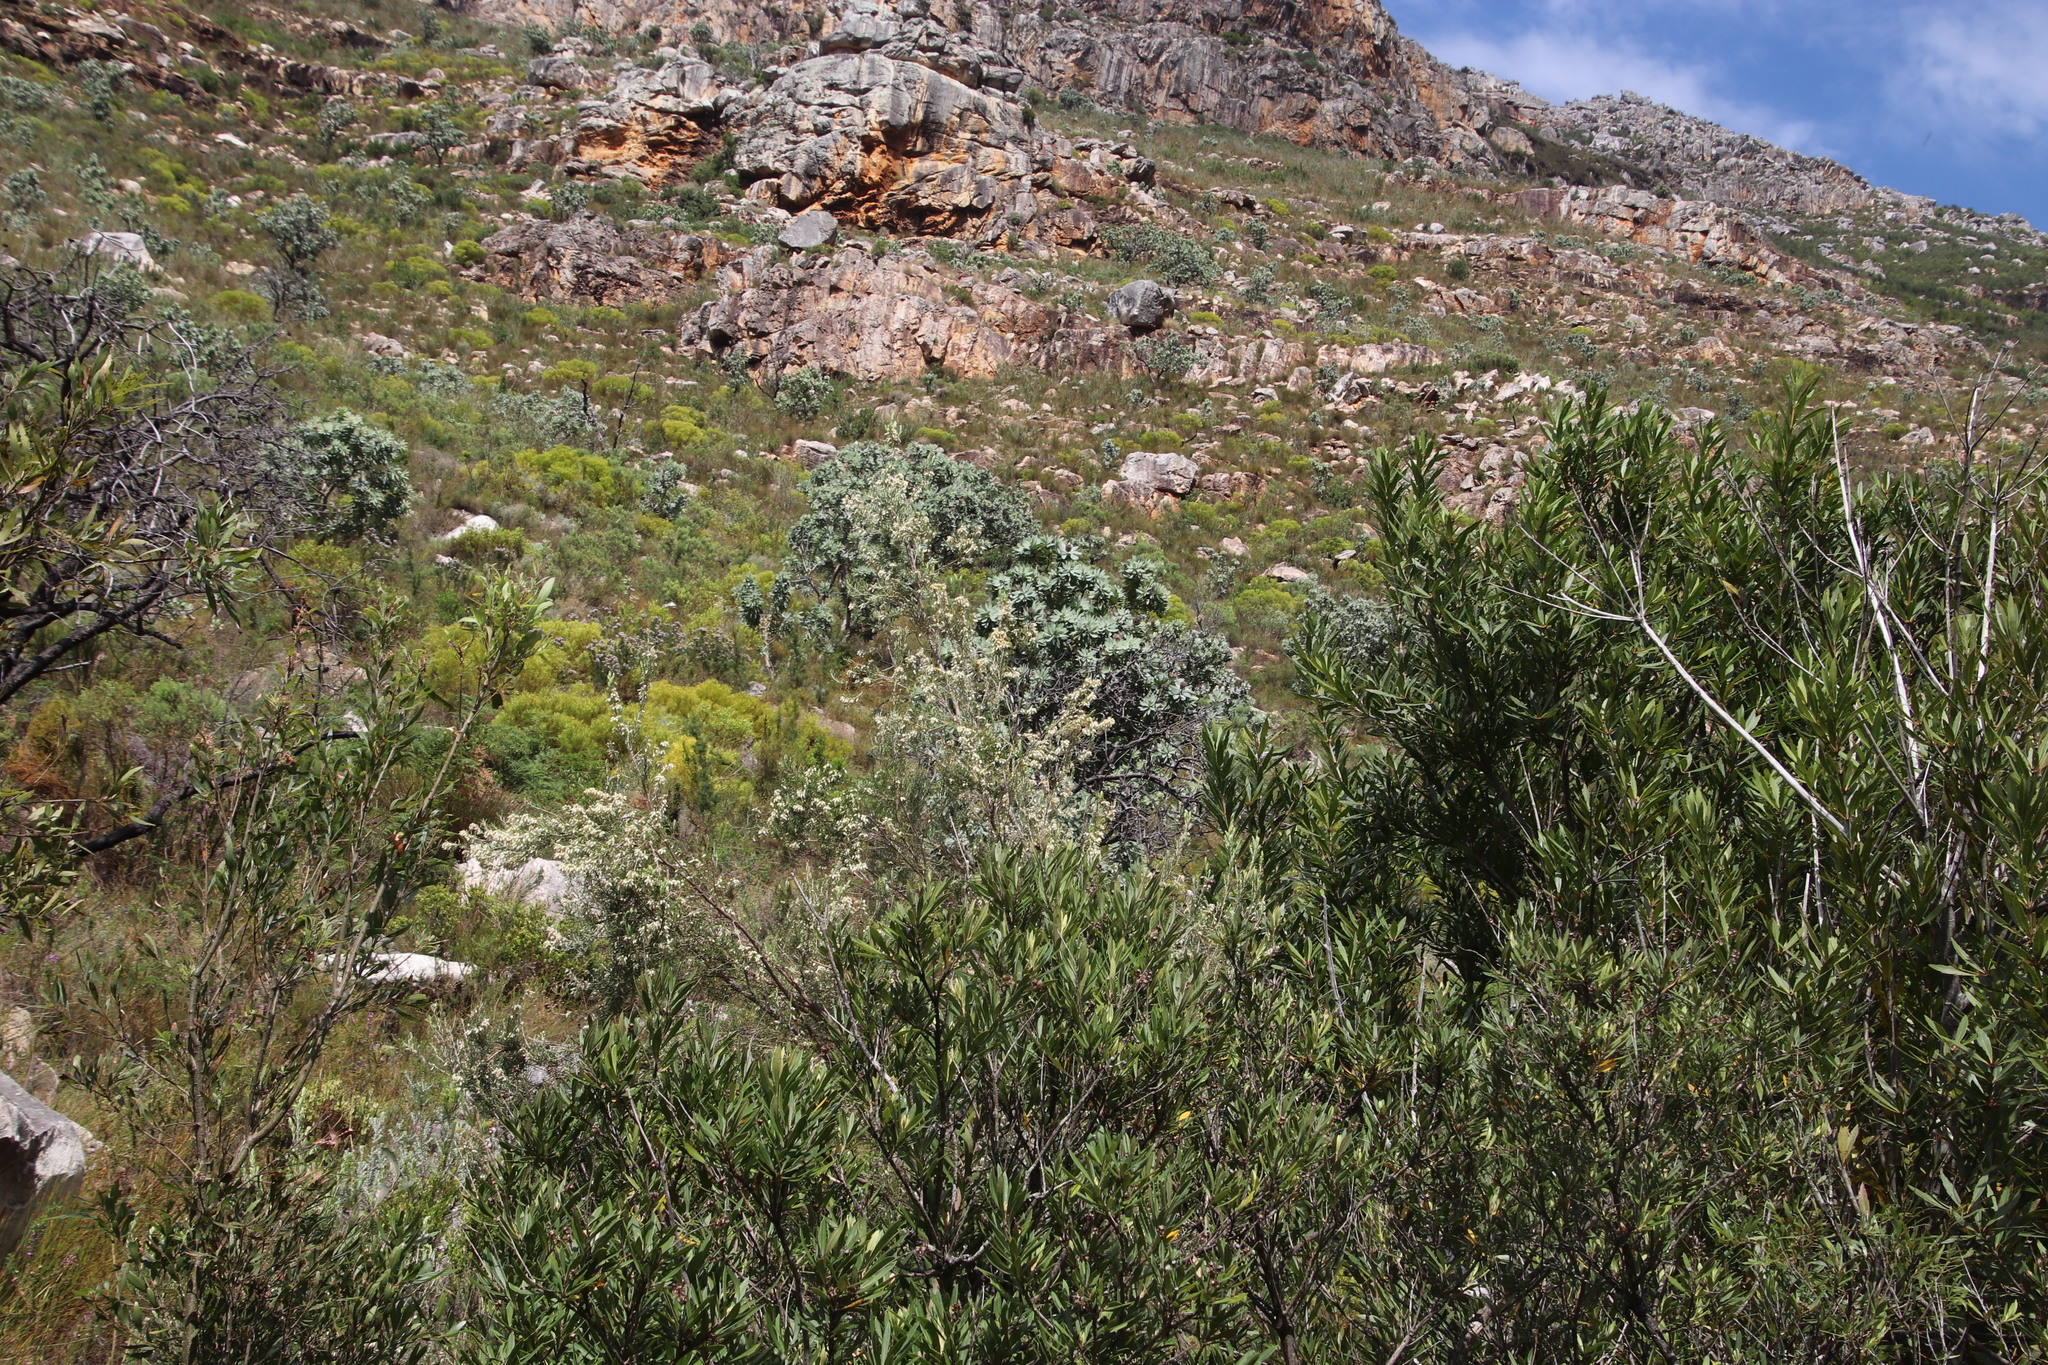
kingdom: Plantae
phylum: Tracheophyta
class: Magnoliopsida
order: Ericales
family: Ericaceae
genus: Erica
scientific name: Erica caffra
